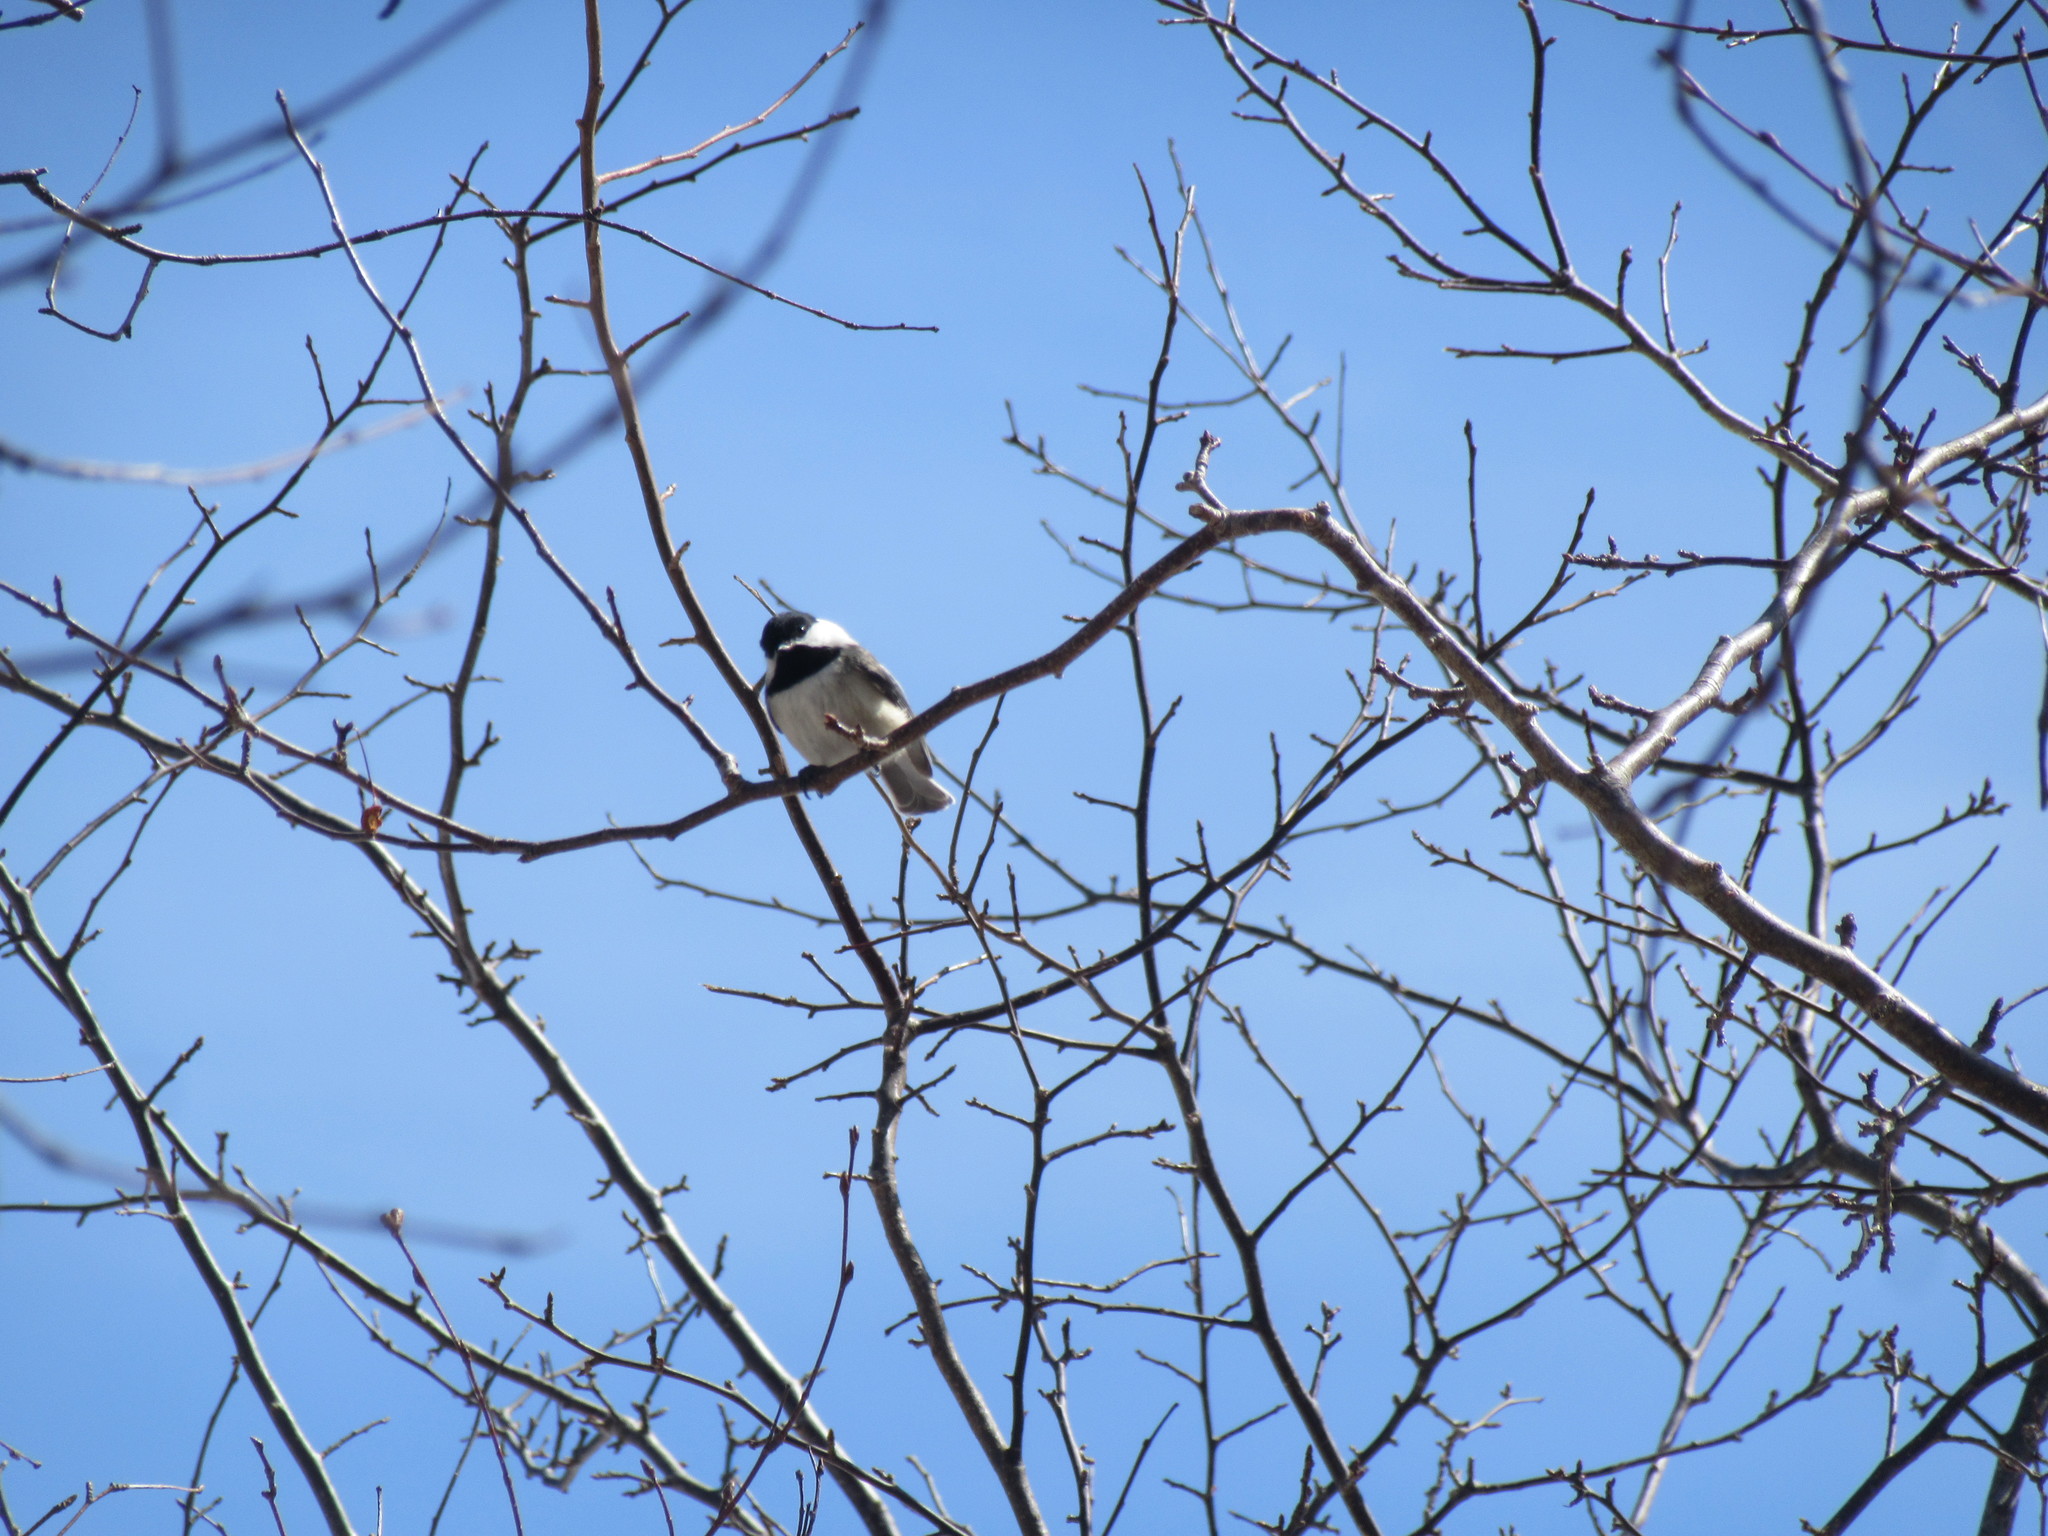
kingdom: Animalia
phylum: Chordata
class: Aves
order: Passeriformes
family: Paridae
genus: Poecile
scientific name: Poecile atricapillus
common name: Black-capped chickadee
